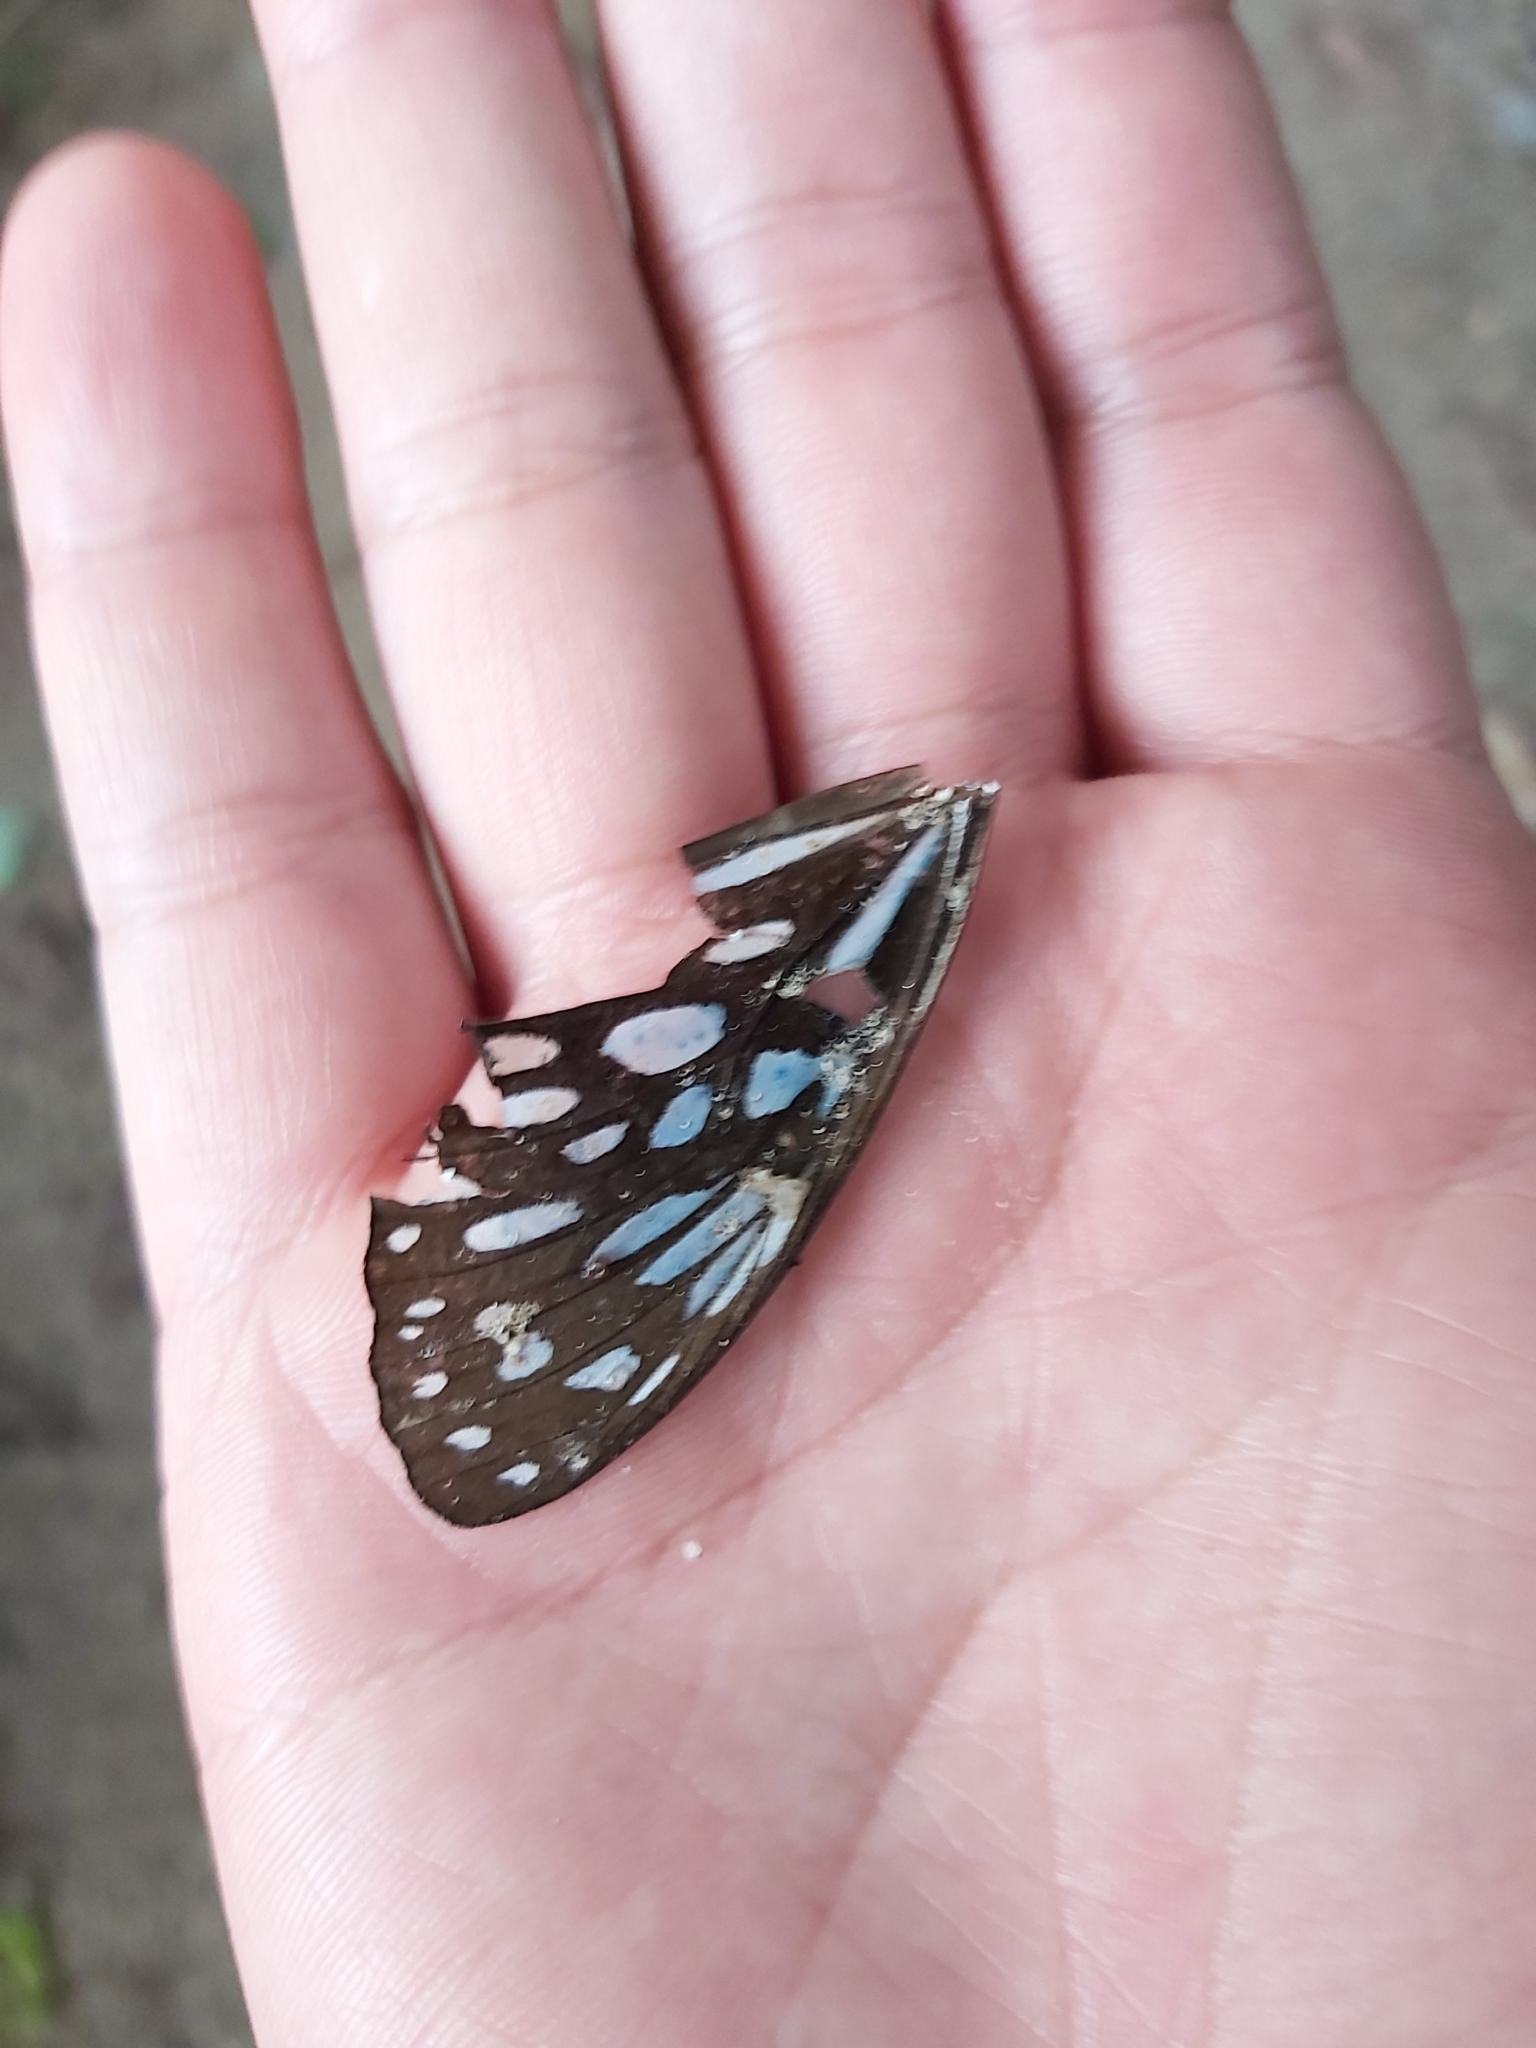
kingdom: Animalia
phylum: Arthropoda
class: Insecta
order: Lepidoptera
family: Nymphalidae
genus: Tirumala
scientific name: Tirumala hamata
